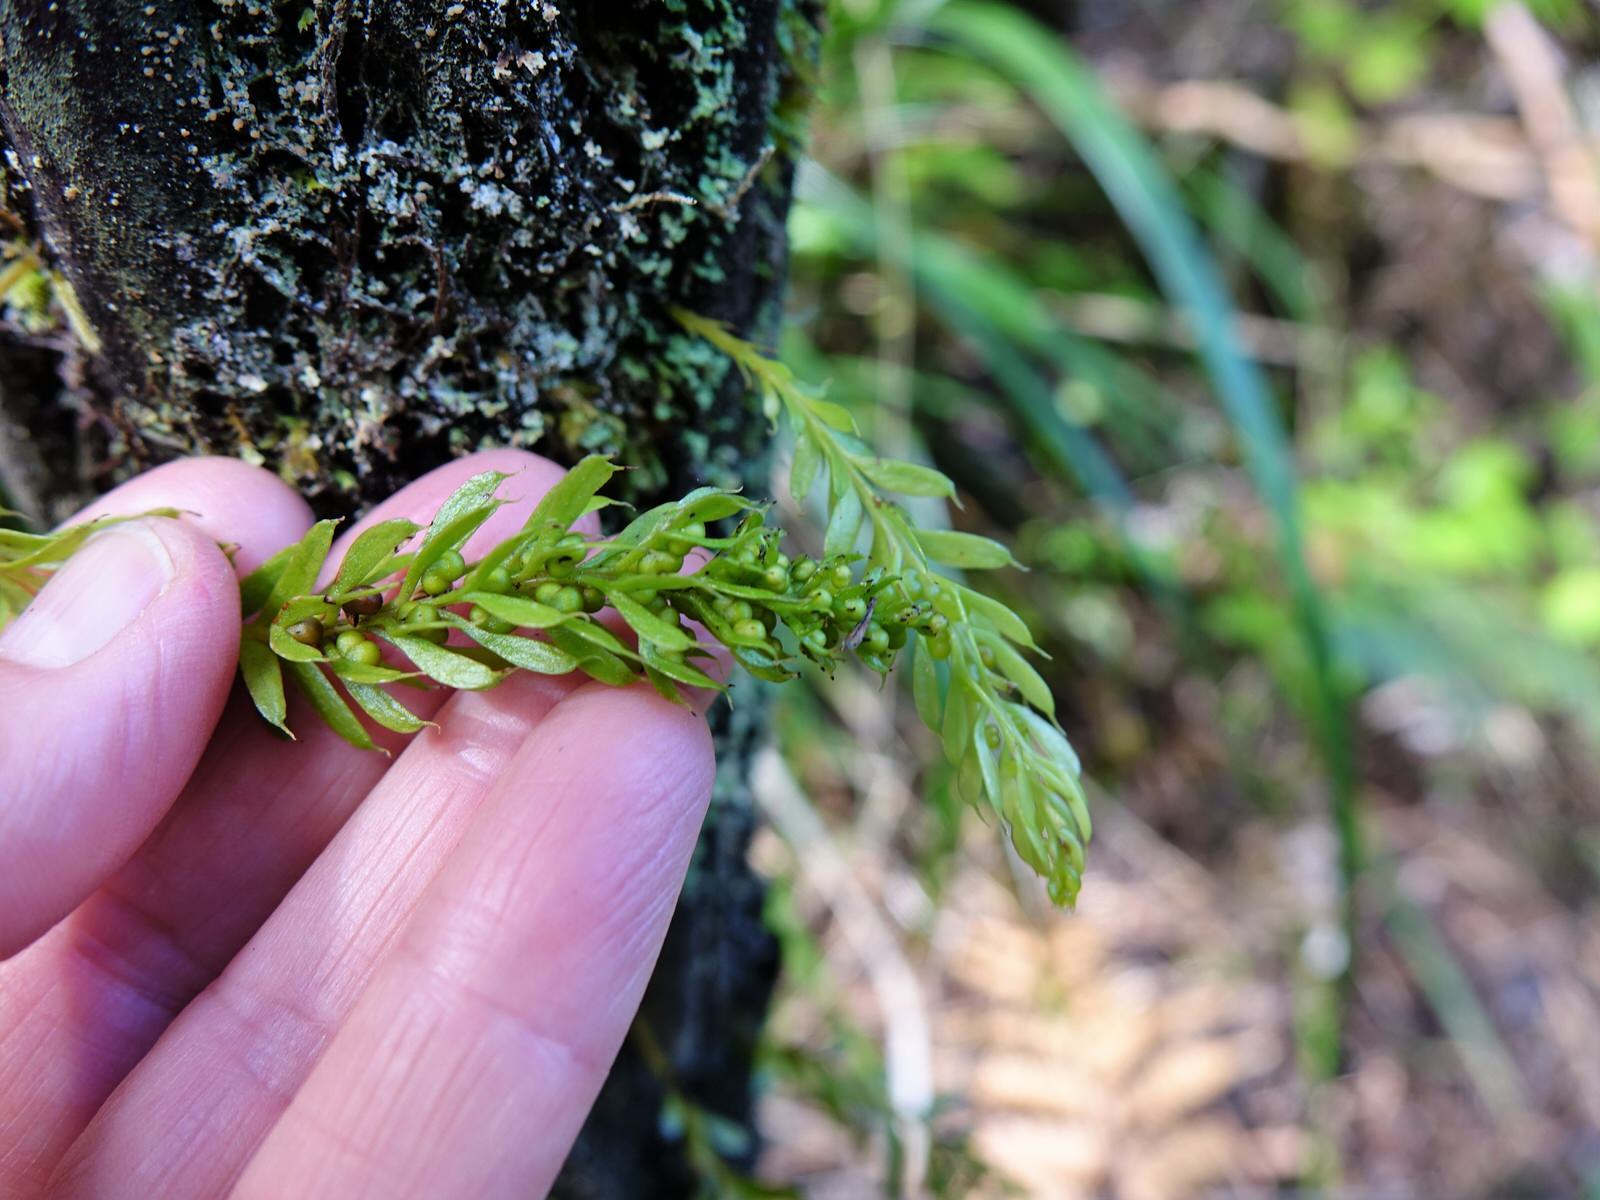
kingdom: Plantae
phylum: Tracheophyta
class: Polypodiopsida
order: Psilotales
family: Psilotaceae
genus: Tmesipteris
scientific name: Tmesipteris sigmatifolia
